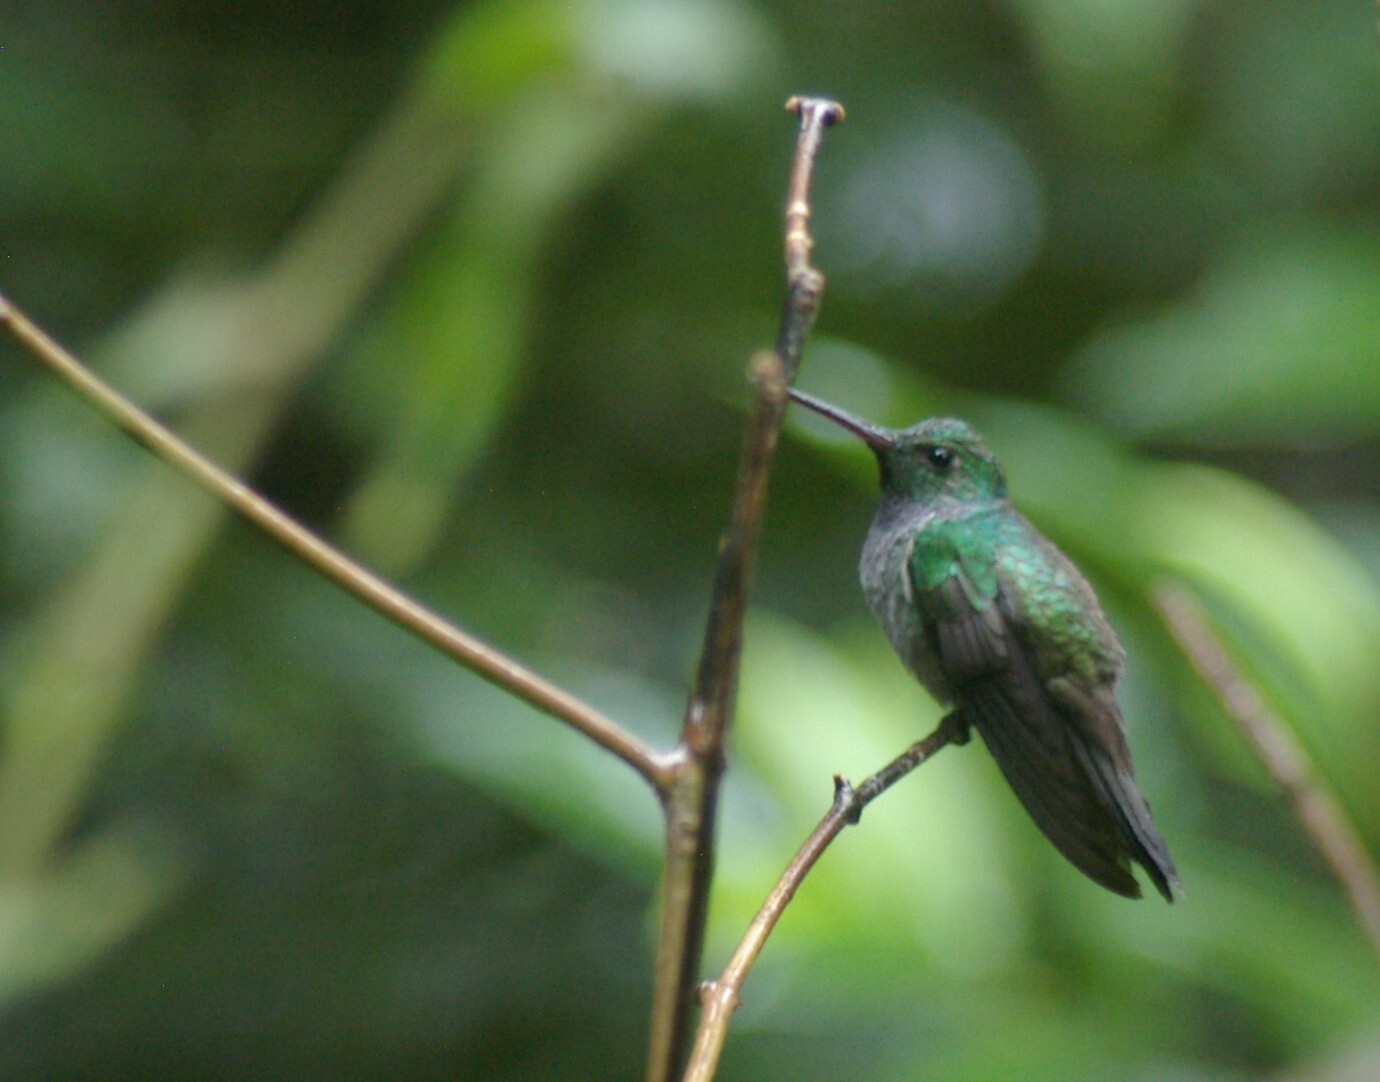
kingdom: Animalia
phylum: Chordata
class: Aves
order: Apodiformes
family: Trochilidae
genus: Polyerata
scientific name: Polyerata amabilis
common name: Blue-chested hummingbird
